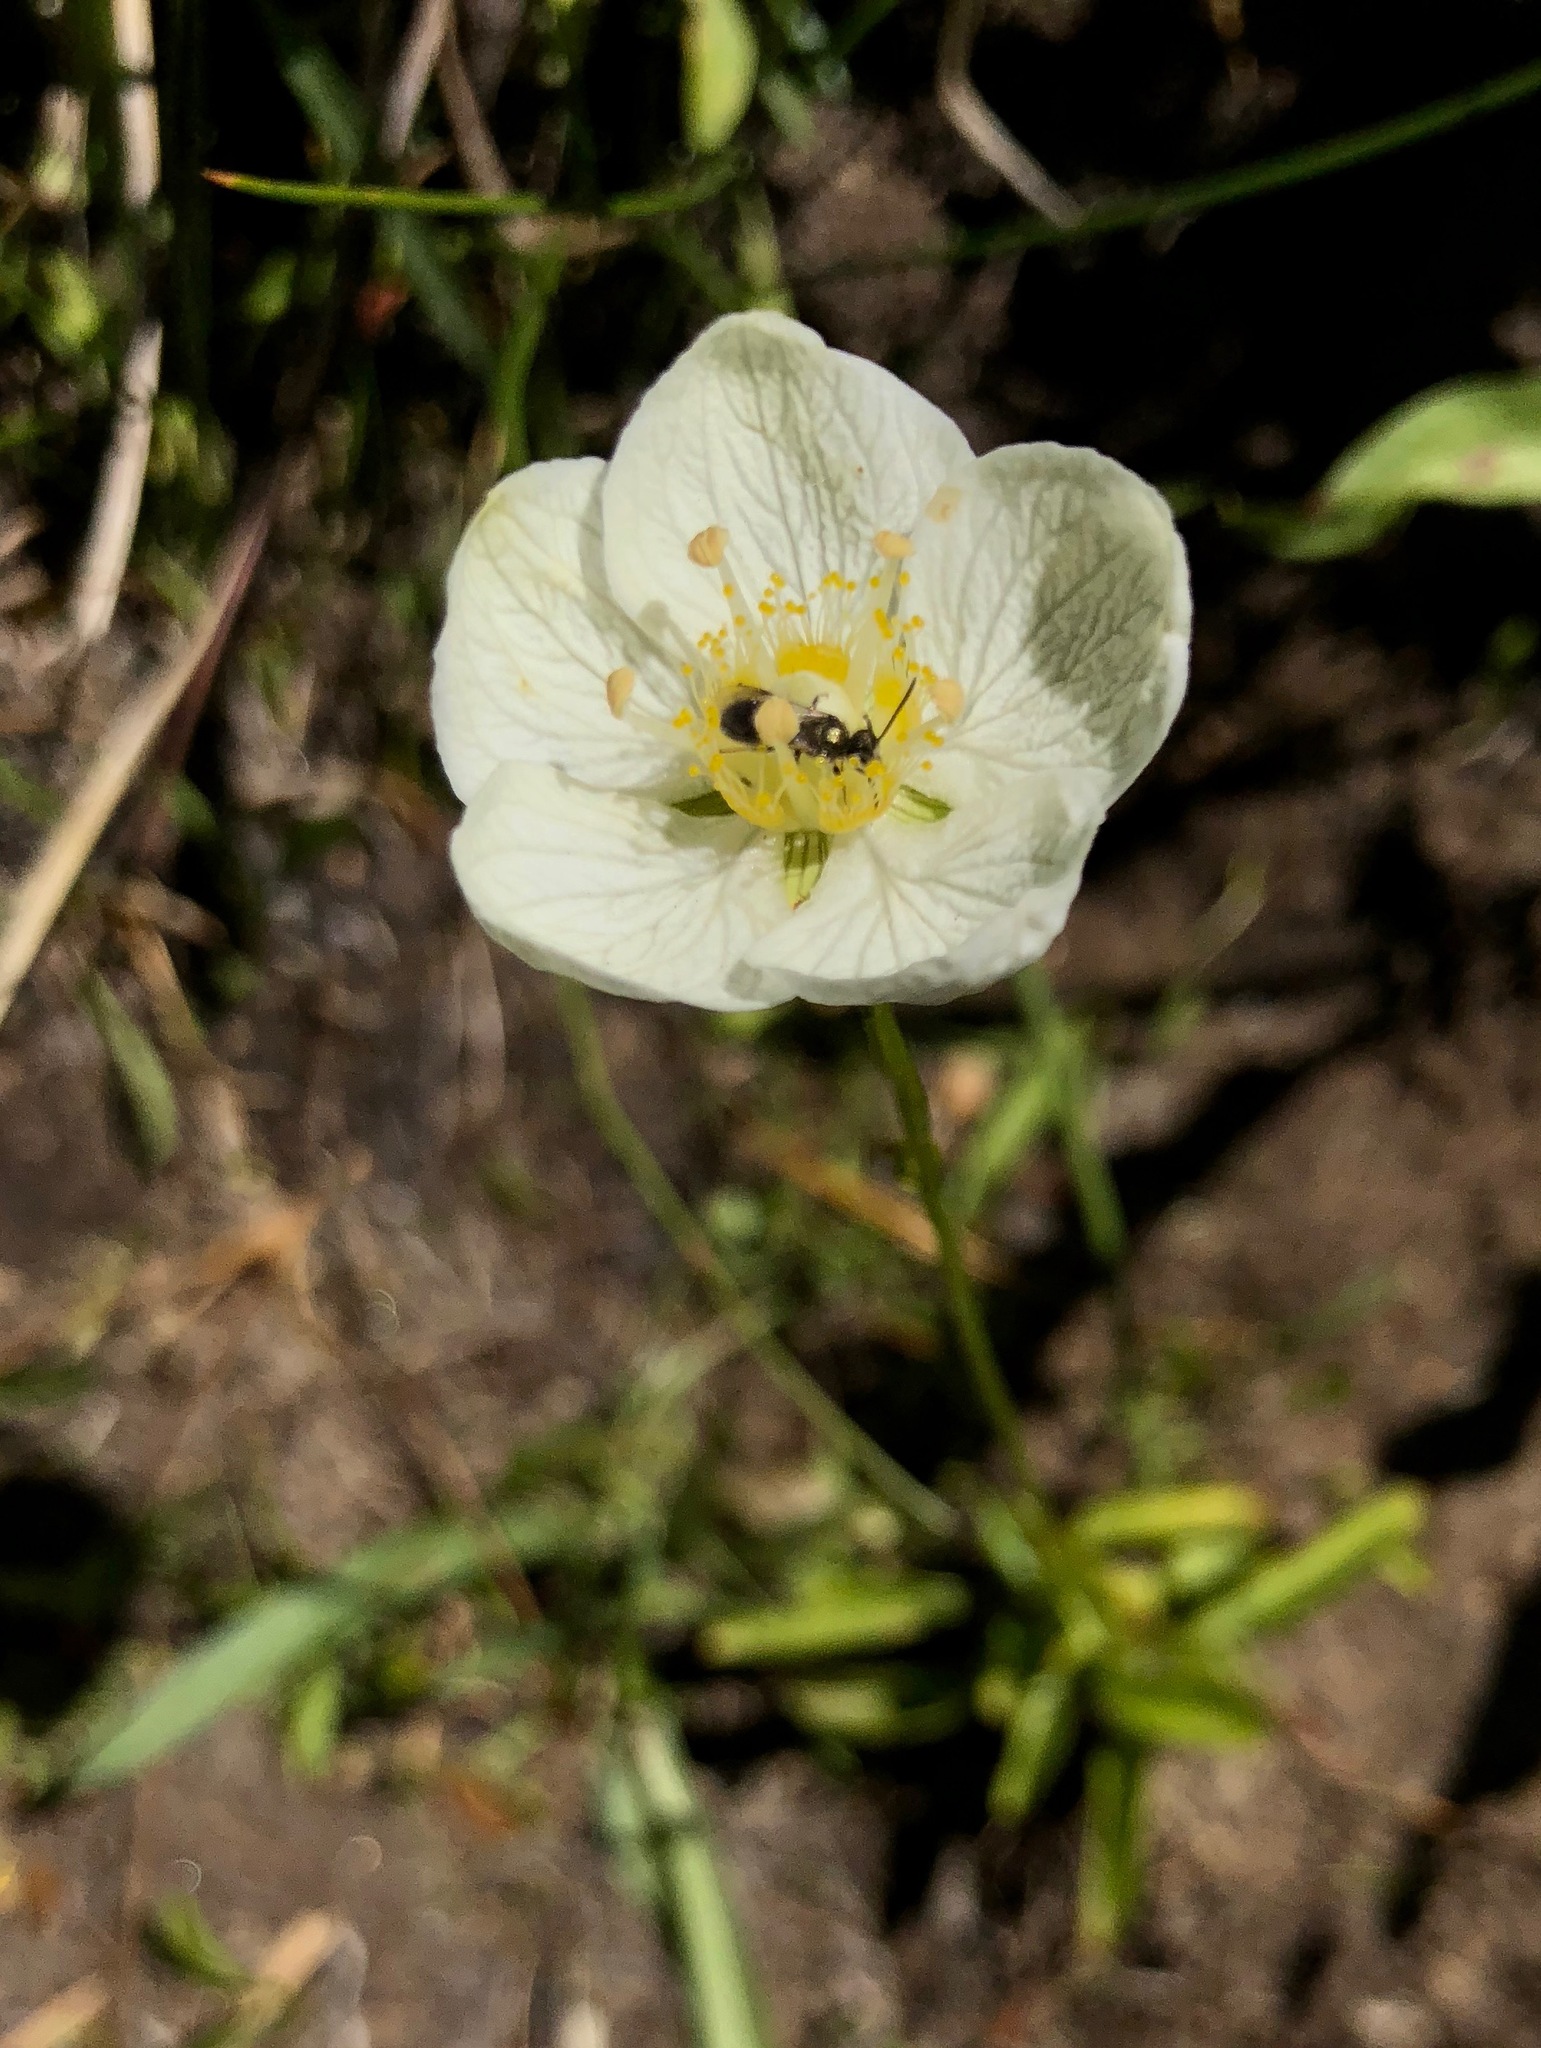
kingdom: Plantae
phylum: Tracheophyta
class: Magnoliopsida
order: Celastrales
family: Parnassiaceae
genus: Parnassia
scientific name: Parnassia palustris
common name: Grass-of-parnassus
